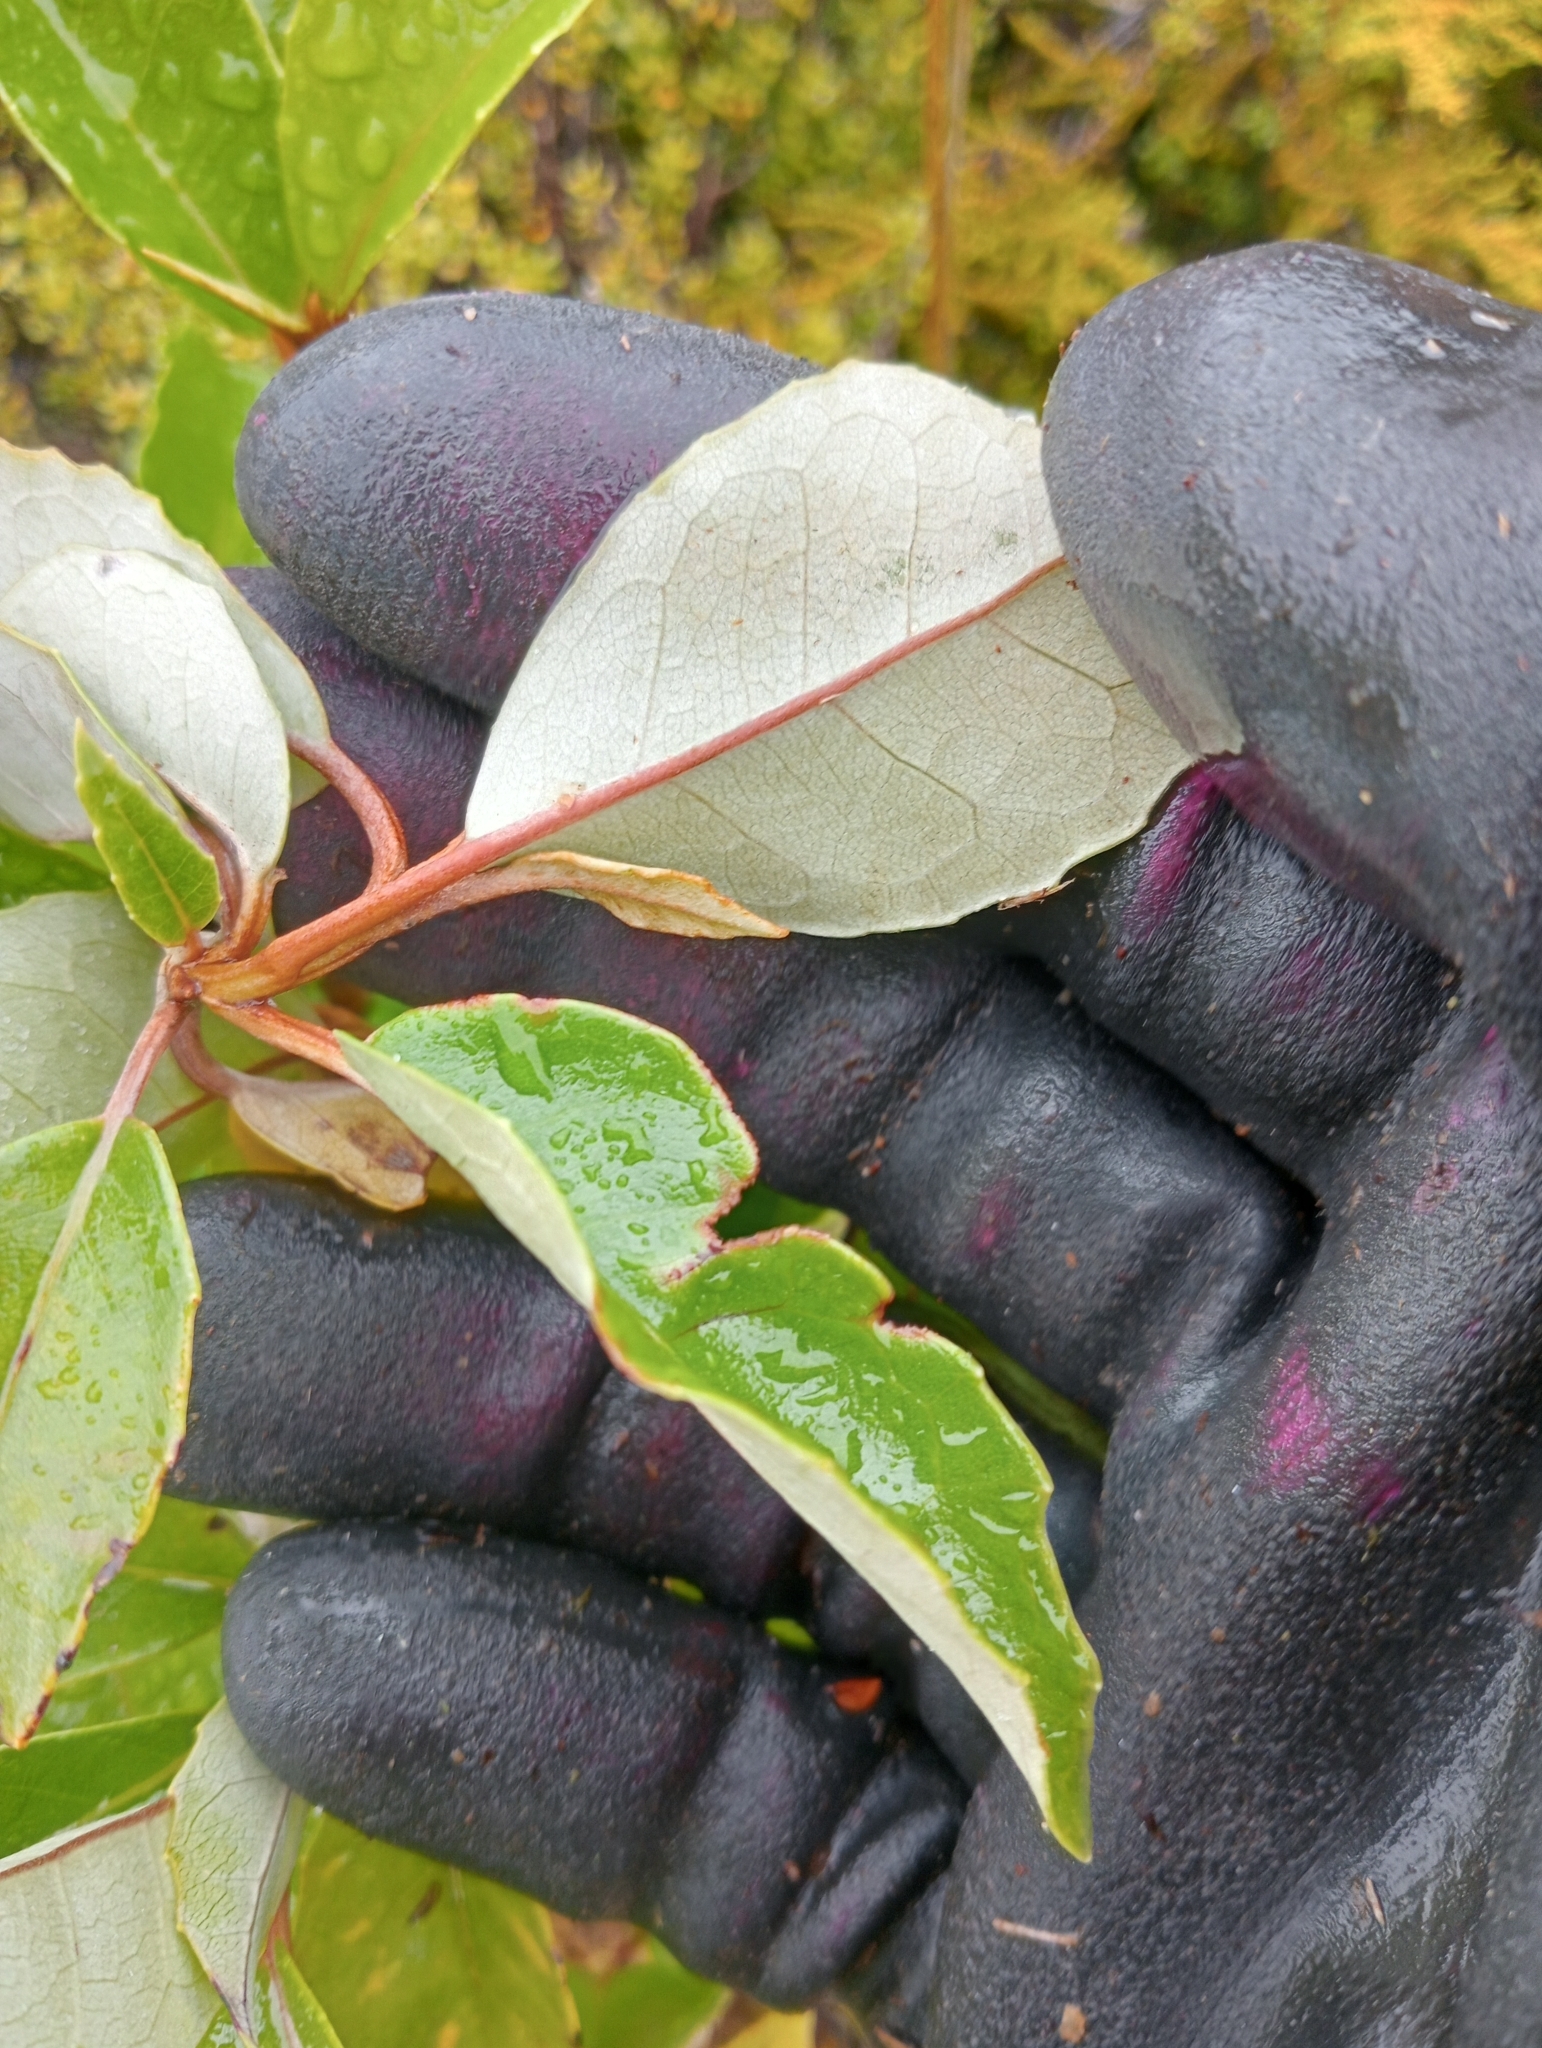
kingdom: Plantae
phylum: Tracheophyta
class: Magnoliopsida
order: Asterales
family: Asteraceae
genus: Olearia
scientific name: Olearia arborescens
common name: Glossy tree daisy
